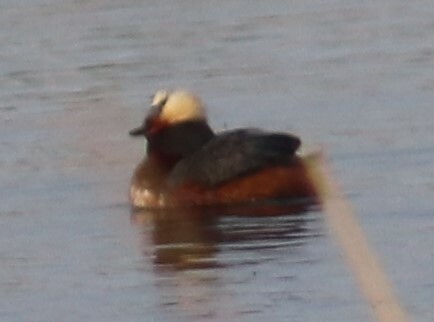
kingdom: Animalia
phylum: Chordata
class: Aves
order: Podicipediformes
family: Podicipedidae
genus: Podiceps
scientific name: Podiceps auritus
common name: Horned grebe
